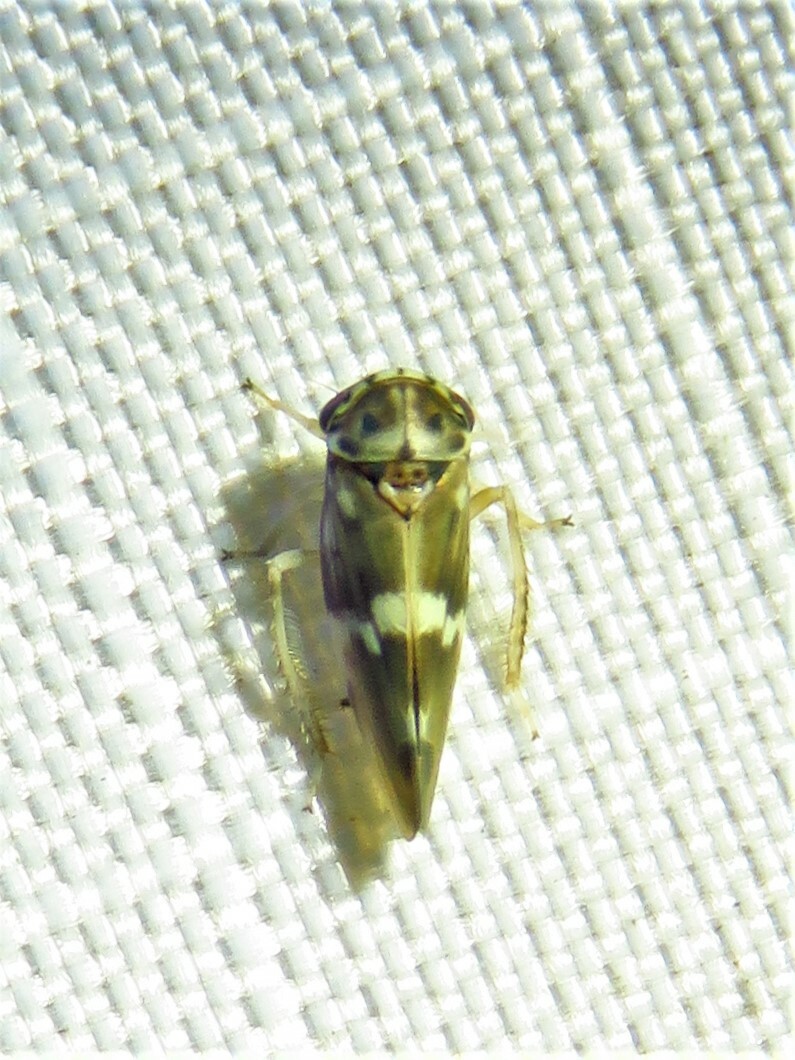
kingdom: Animalia
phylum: Arthropoda
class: Insecta
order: Hemiptera
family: Cicadellidae
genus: Agalliopsis
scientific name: Agalliopsis cervina
